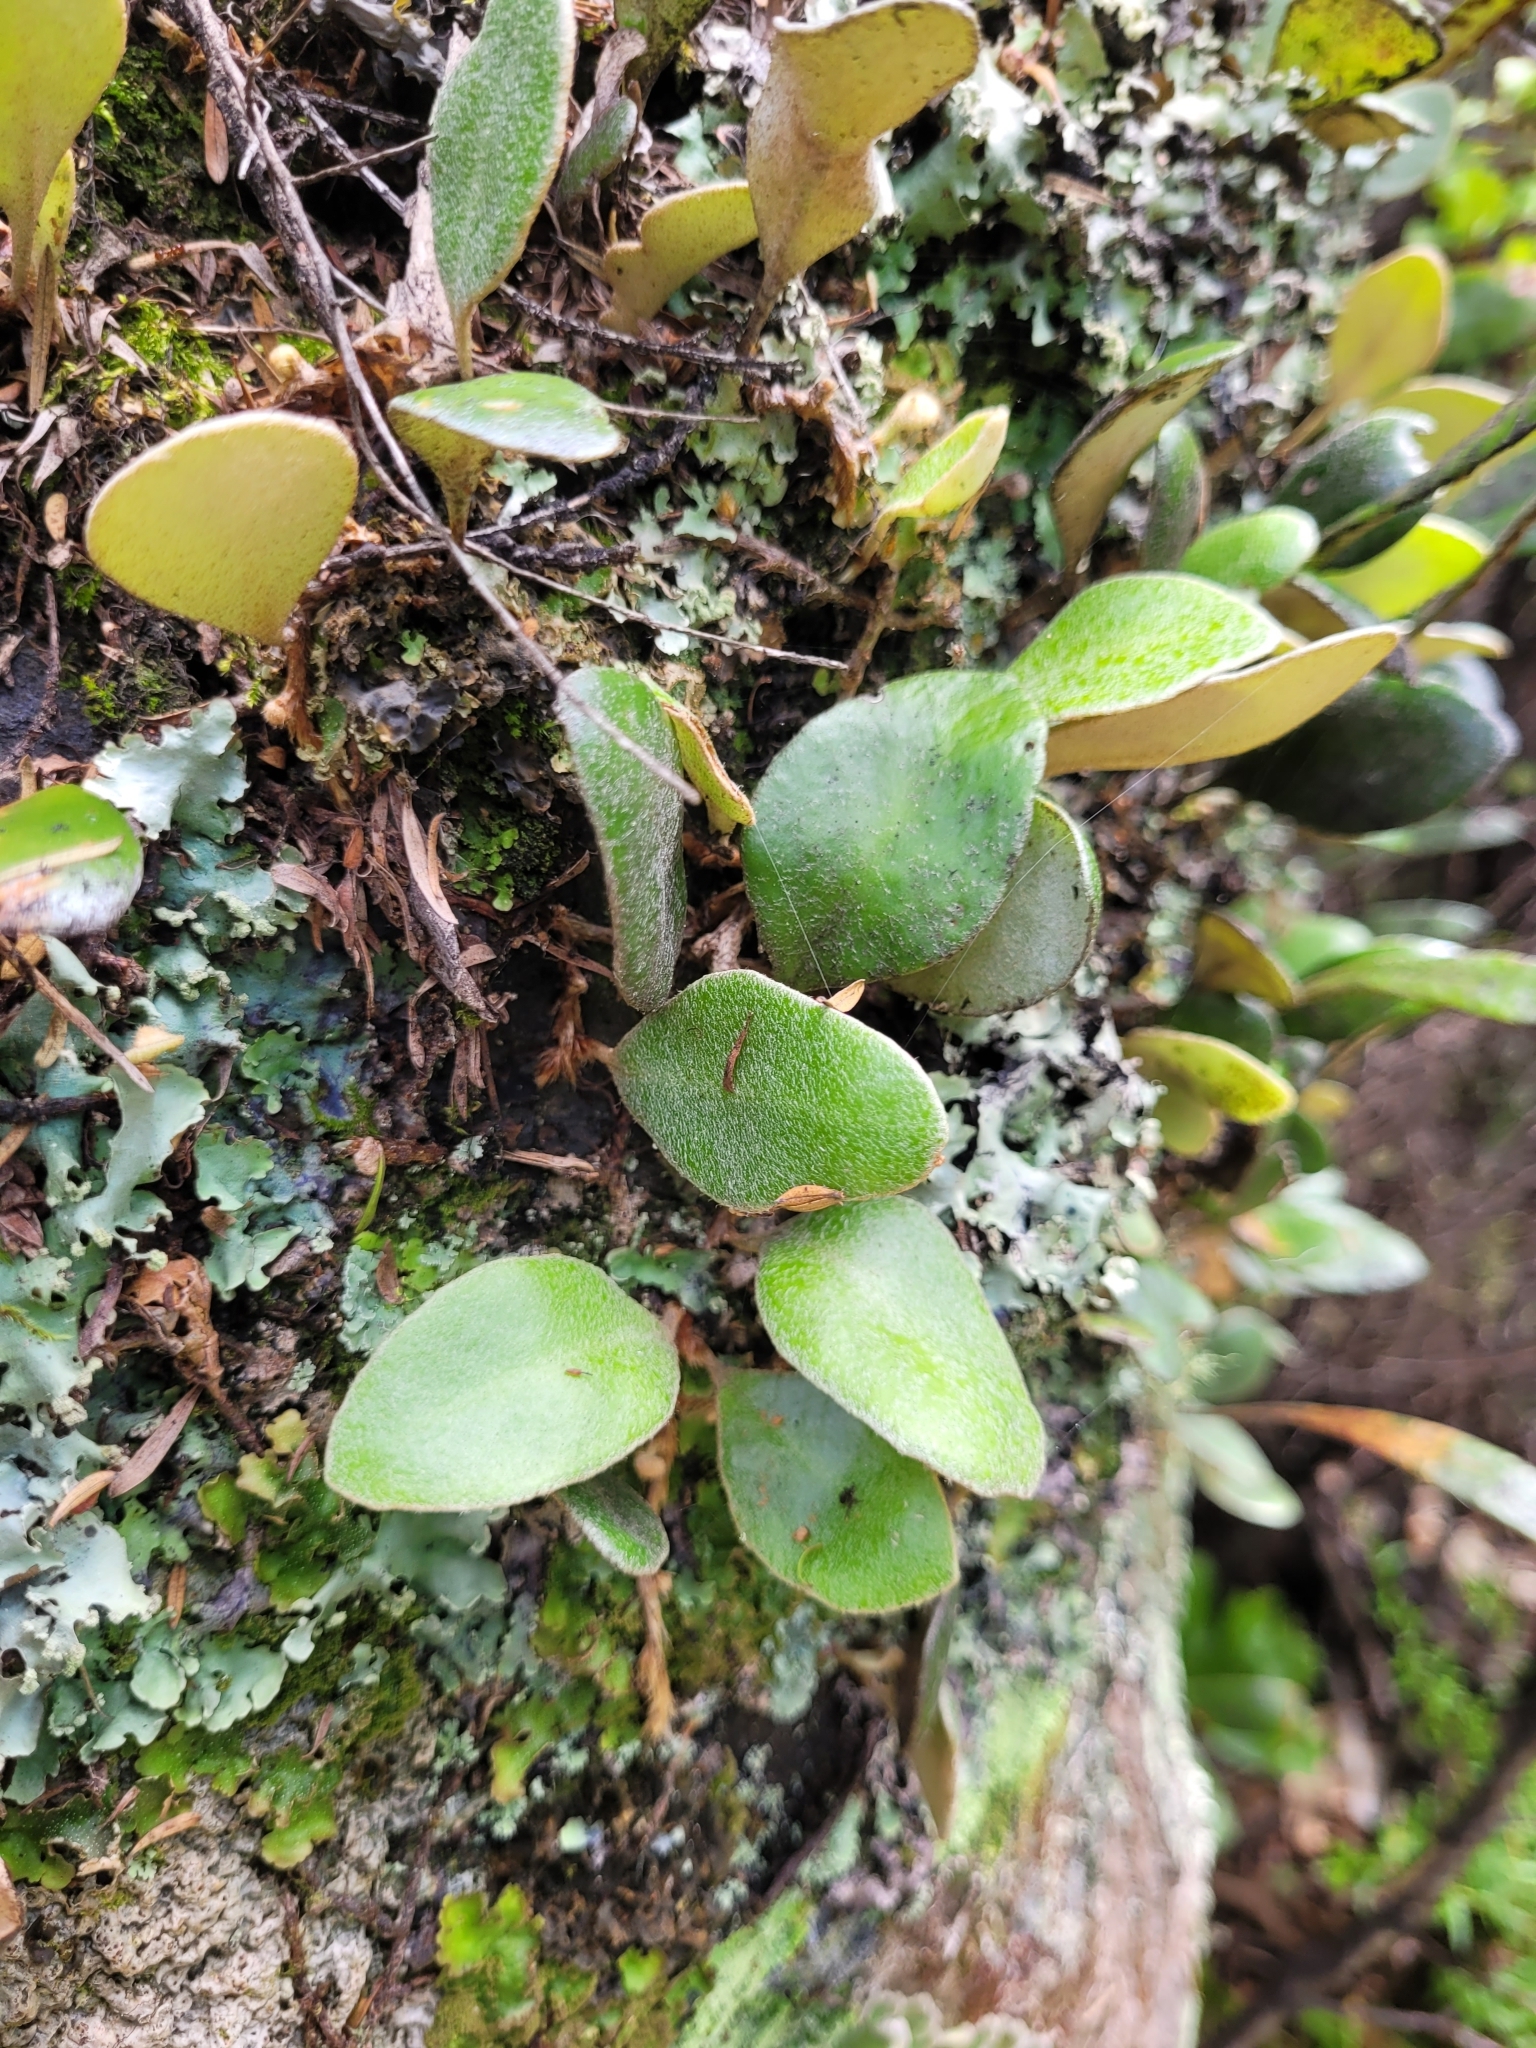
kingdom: Plantae
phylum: Tracheophyta
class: Polypodiopsida
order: Polypodiales
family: Polypodiaceae
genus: Pyrrosia
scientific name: Pyrrosia eleagnifolia
